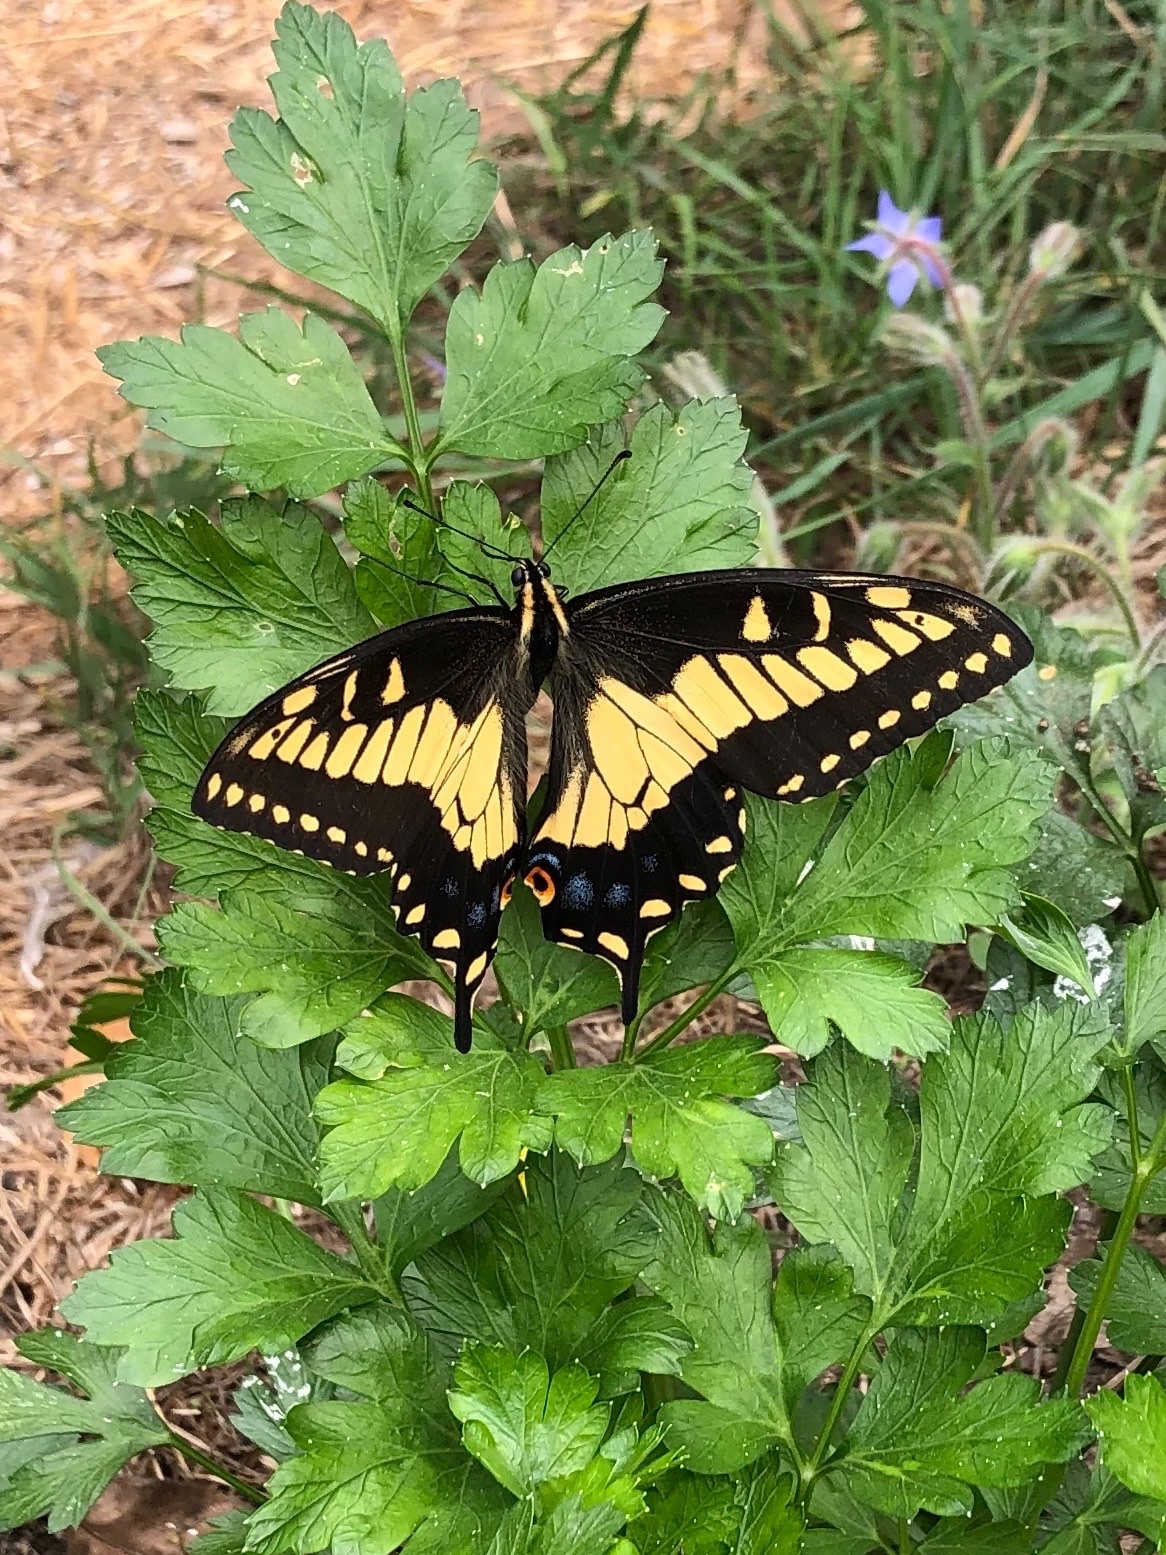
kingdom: Animalia
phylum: Arthropoda
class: Insecta
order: Lepidoptera
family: Papilionidae
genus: Papilio
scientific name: Papilio zelicaon
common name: Anise swallowtail
